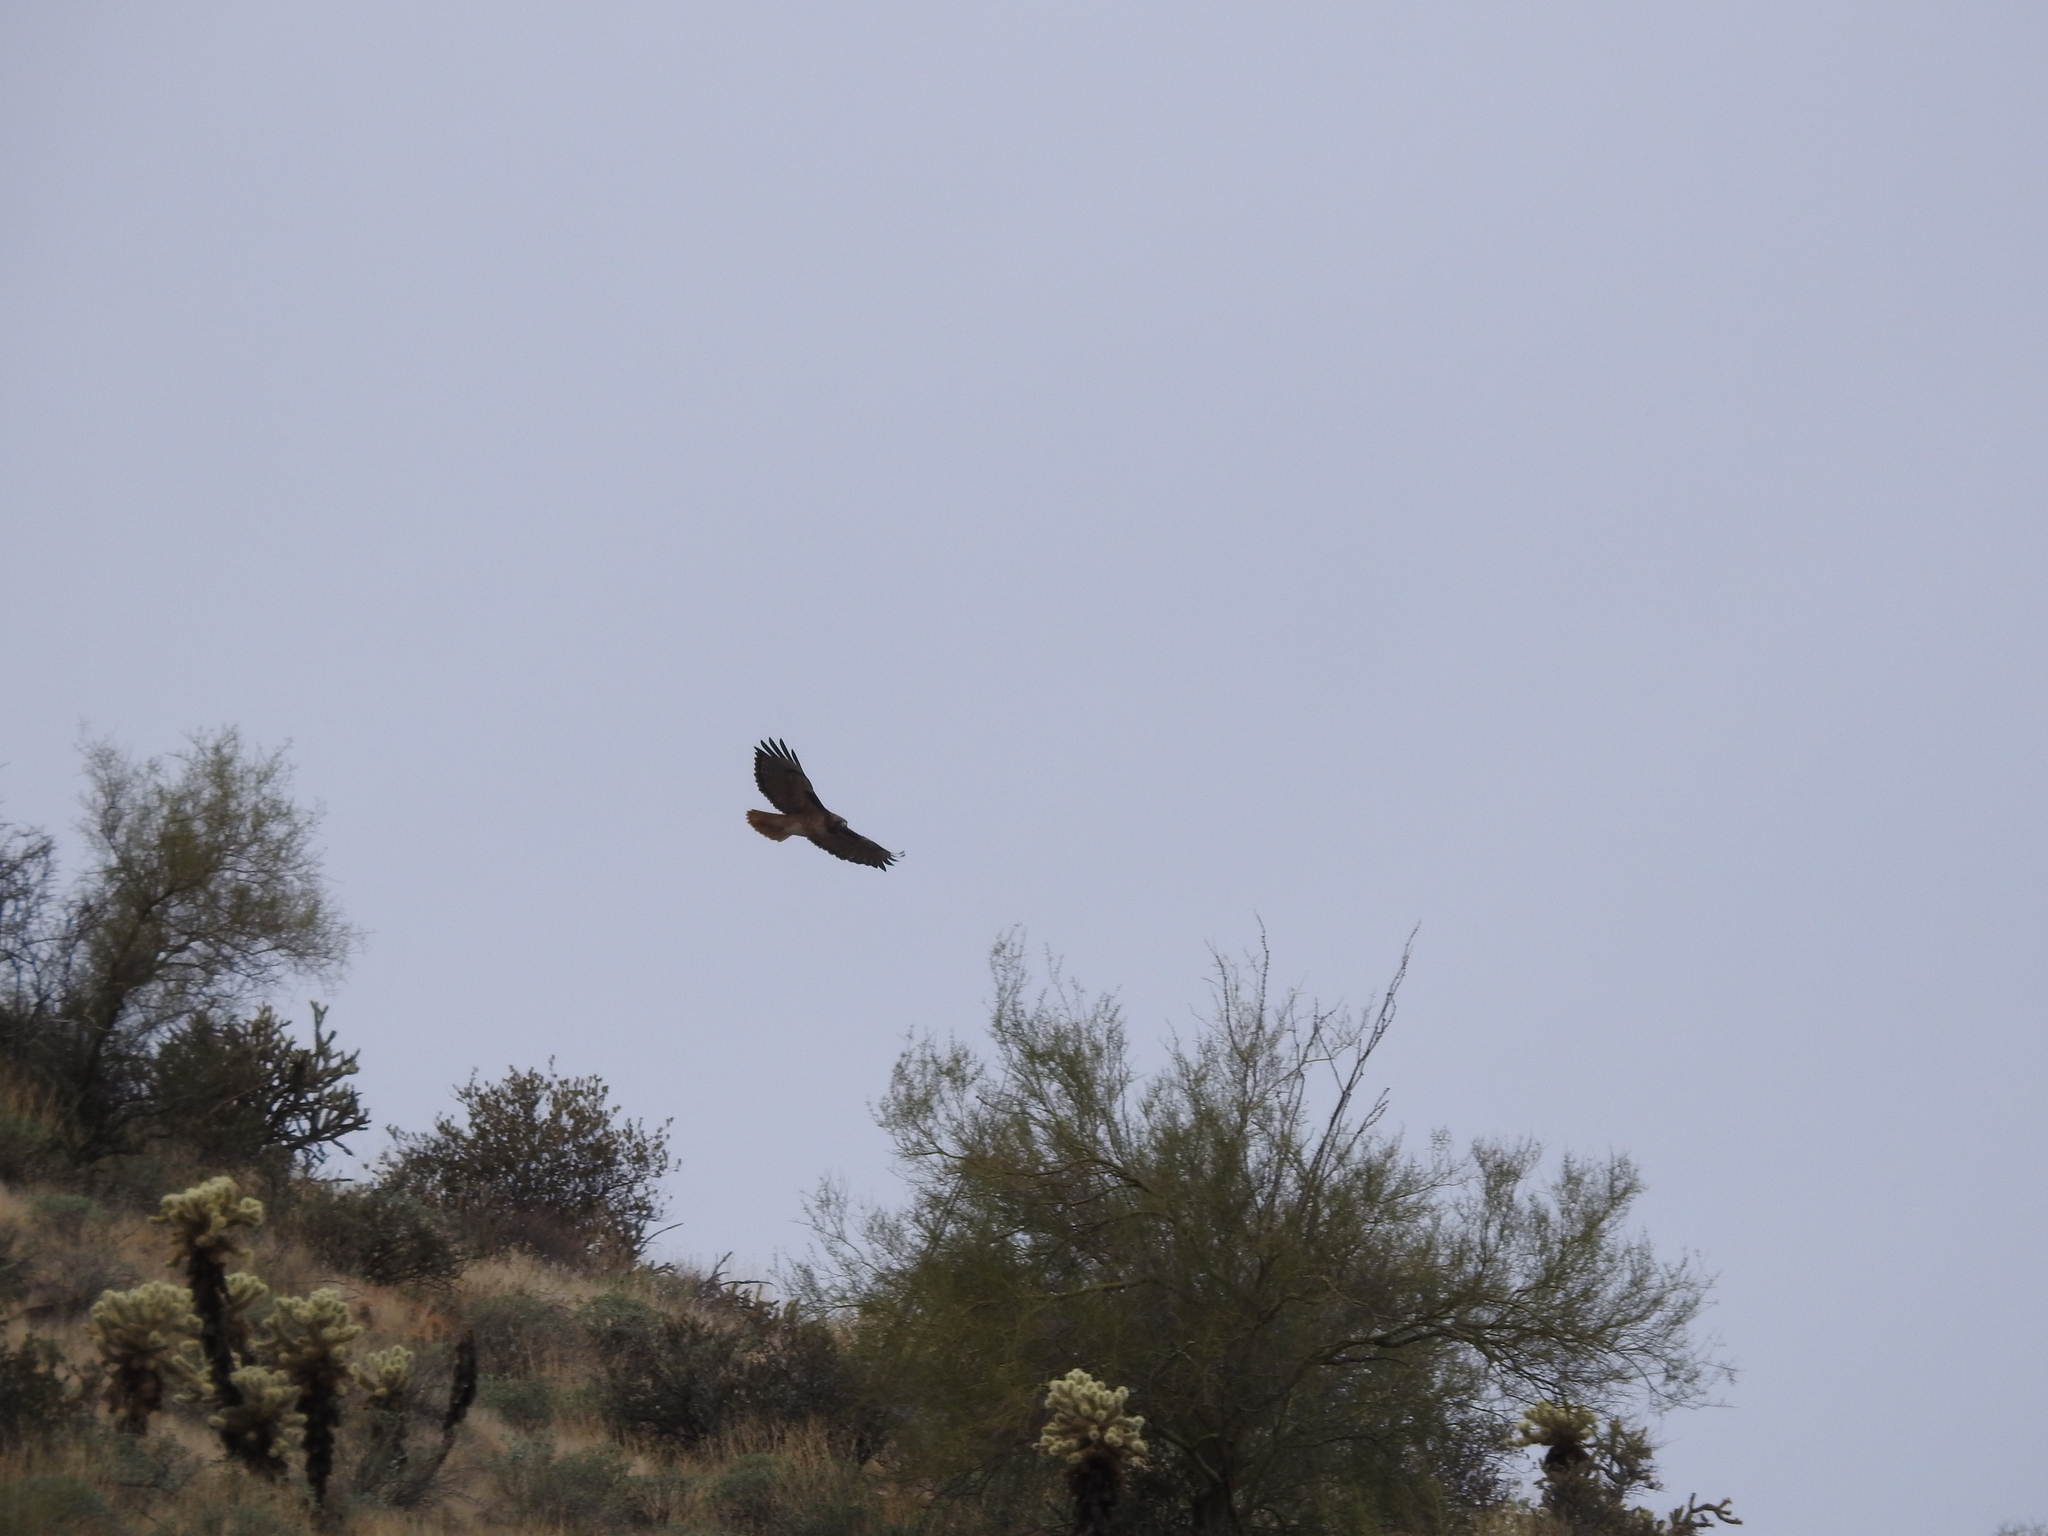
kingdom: Animalia
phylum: Chordata
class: Aves
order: Accipitriformes
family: Accipitridae
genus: Buteo
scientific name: Buteo jamaicensis
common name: Red-tailed hawk
